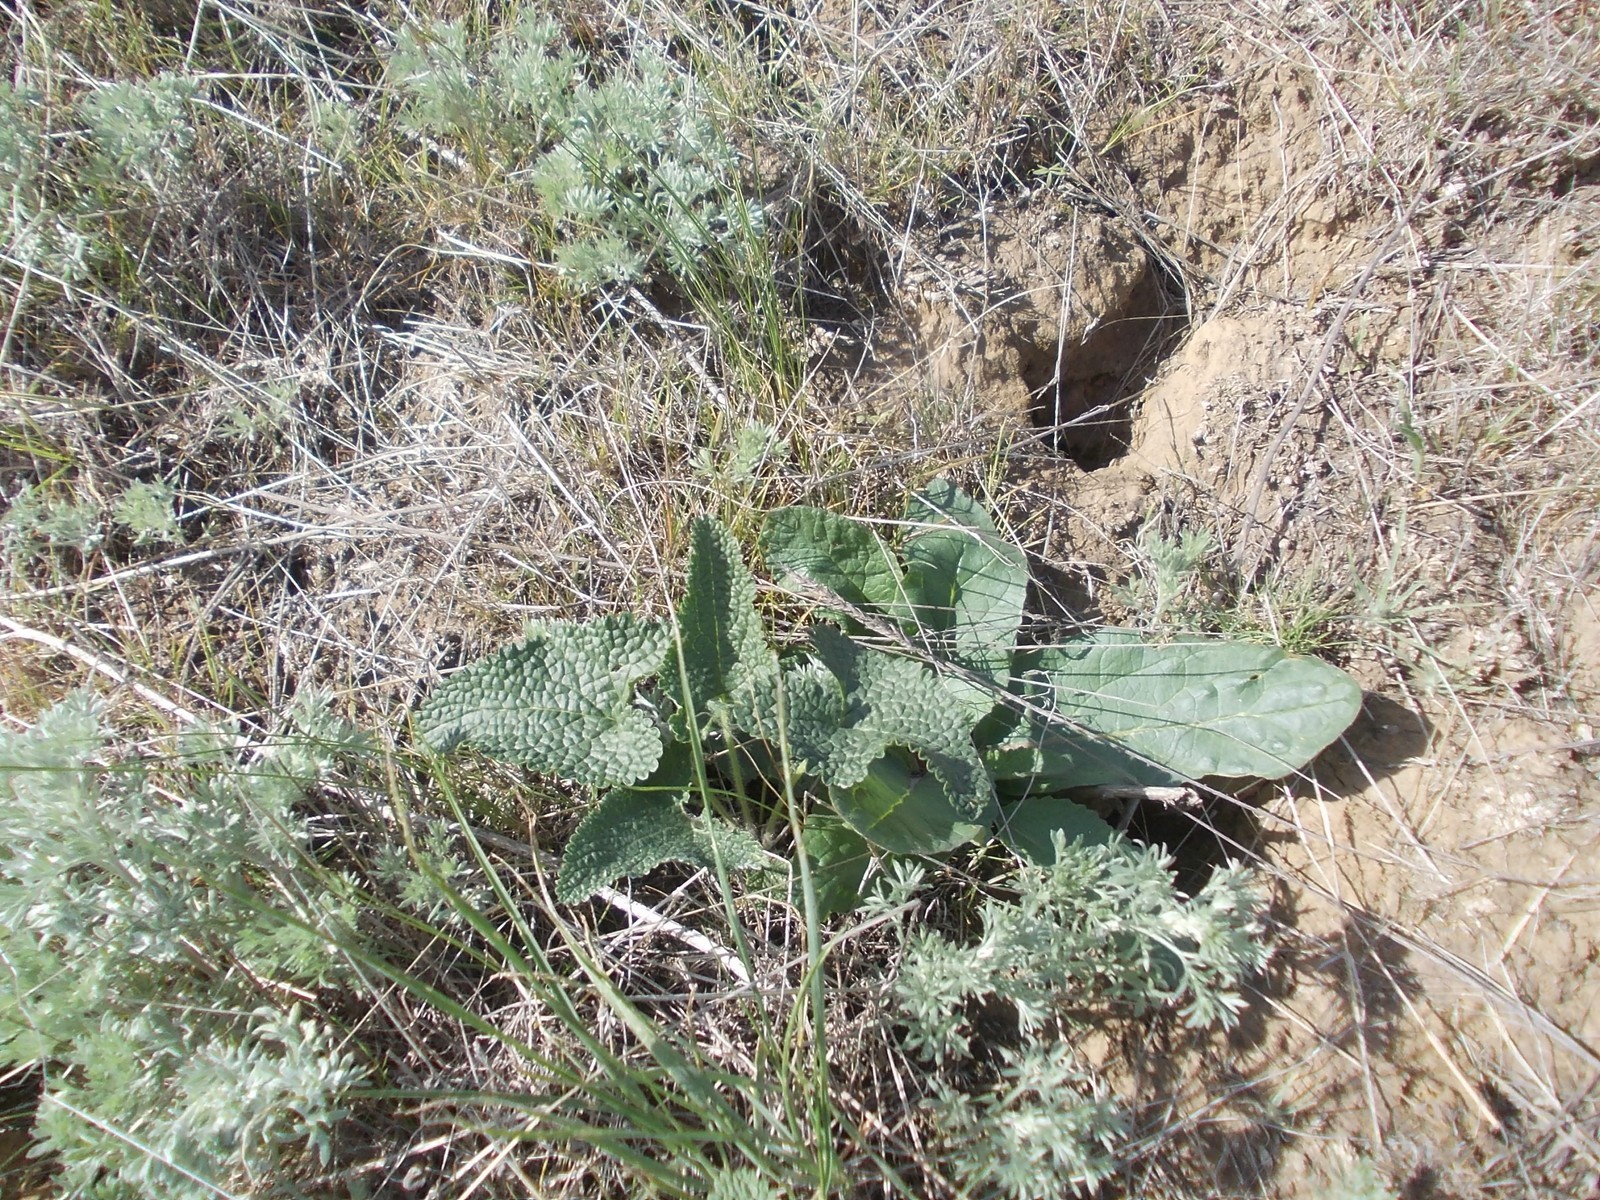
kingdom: Plantae
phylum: Tracheophyta
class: Magnoliopsida
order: Lamiales
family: Lamiaceae
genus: Phlomoides
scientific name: Phlomoides tuberosa
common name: Tuberous jerusalem sage
